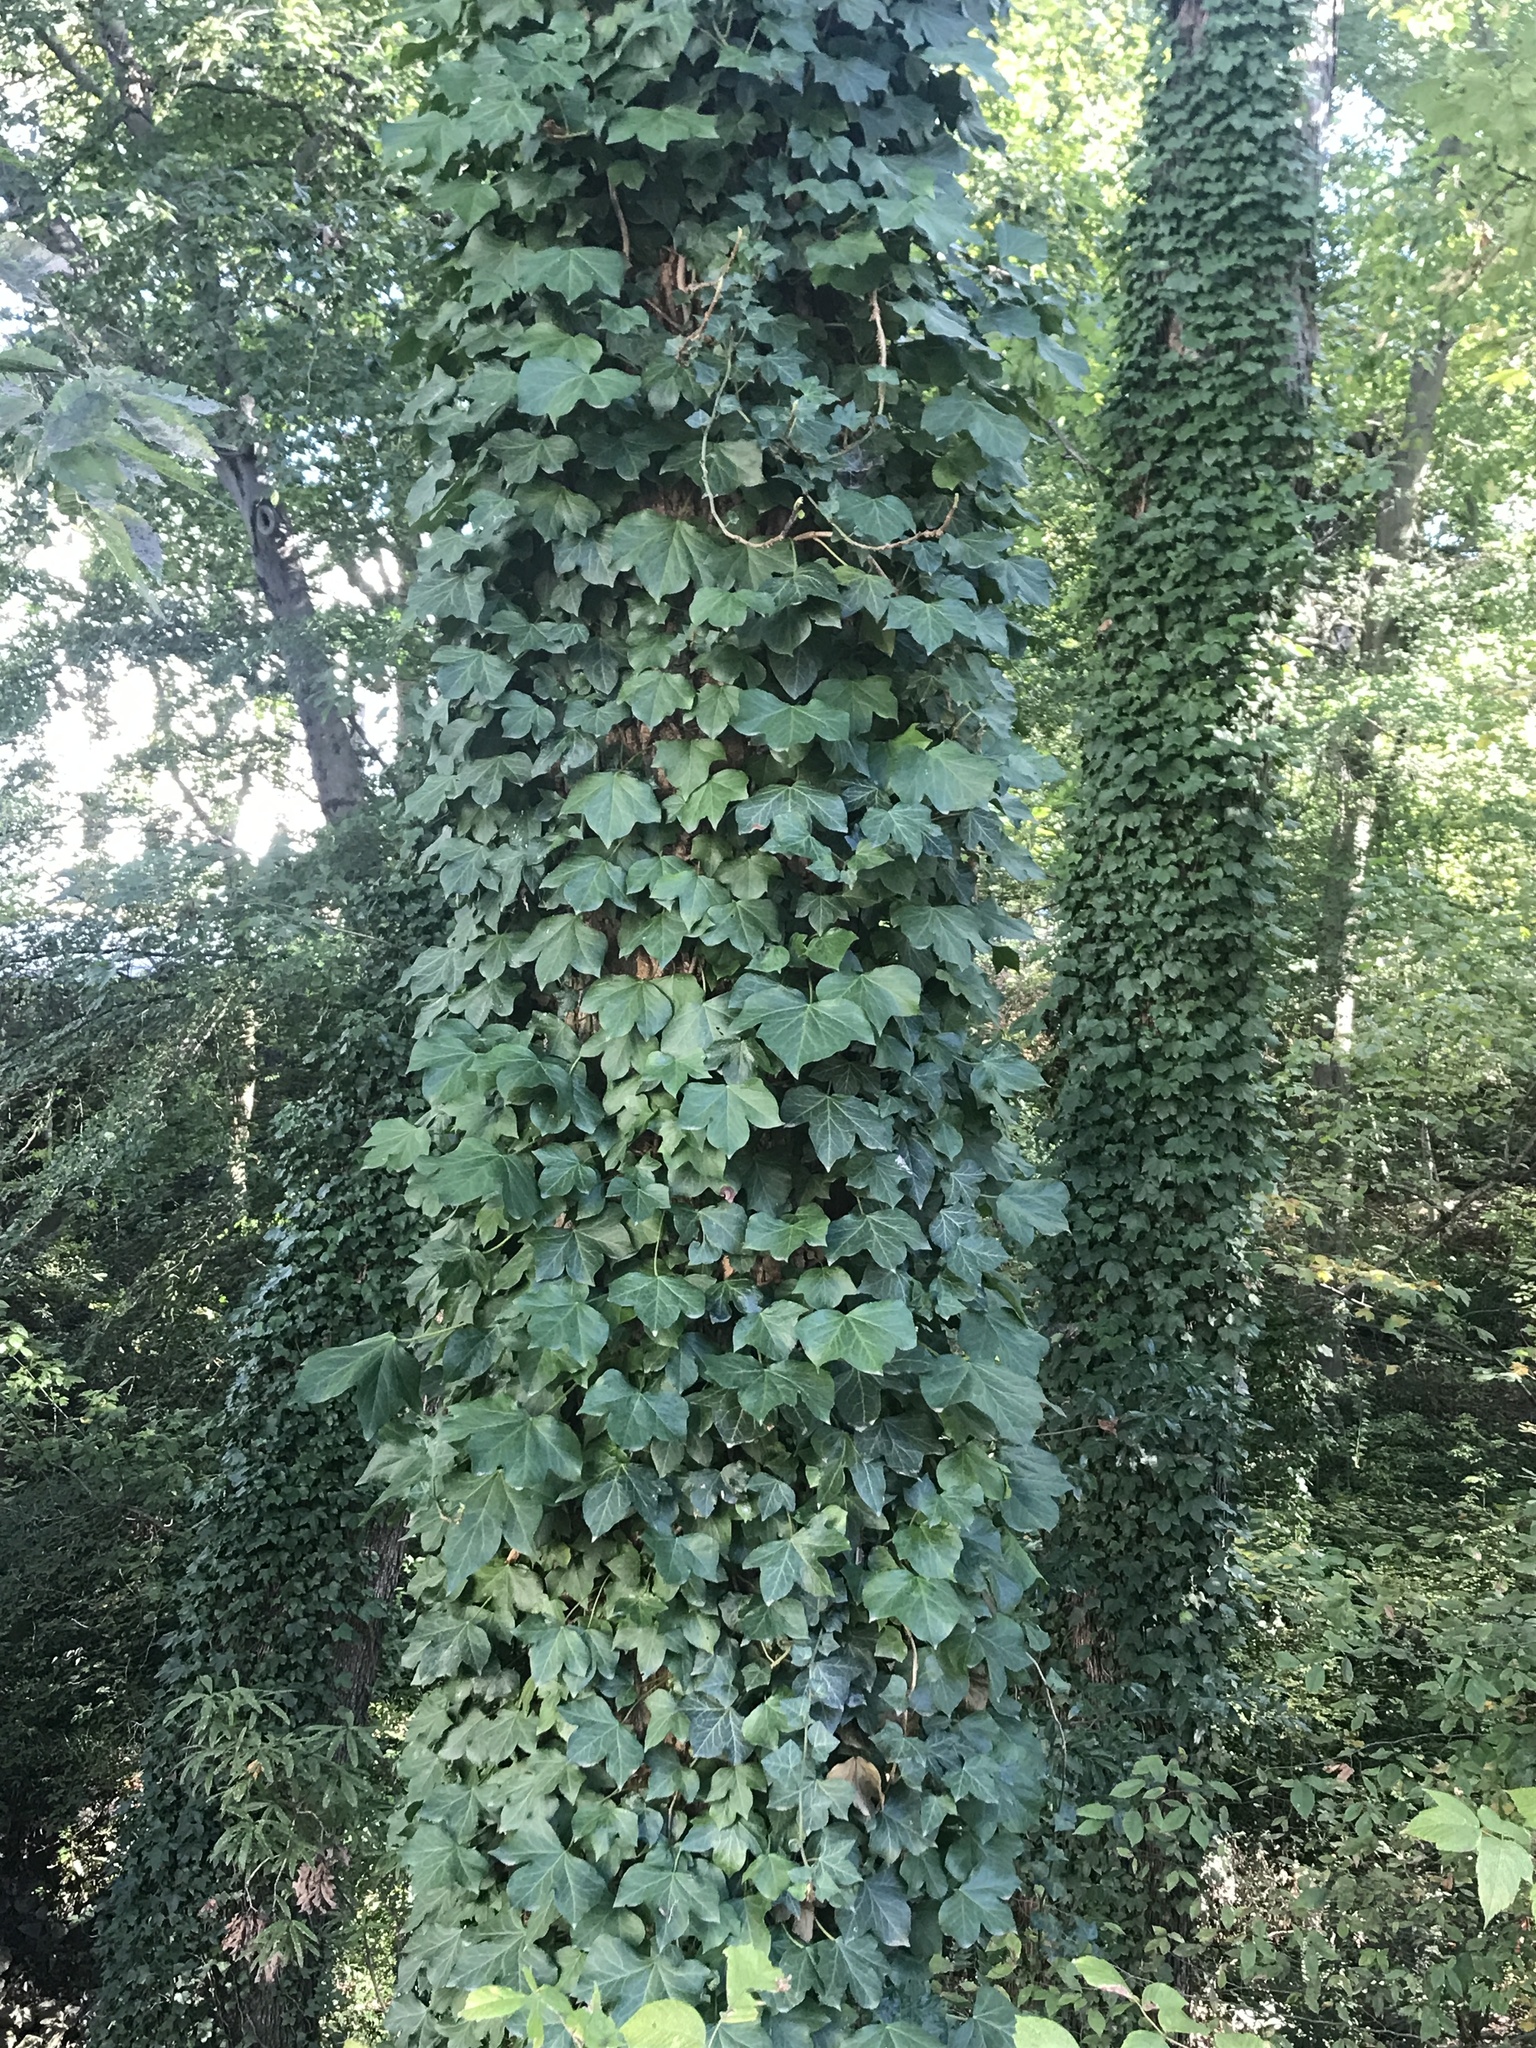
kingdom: Plantae
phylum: Tracheophyta
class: Magnoliopsida
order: Apiales
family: Araliaceae
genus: Hedera
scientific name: Hedera helix
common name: Ivy
